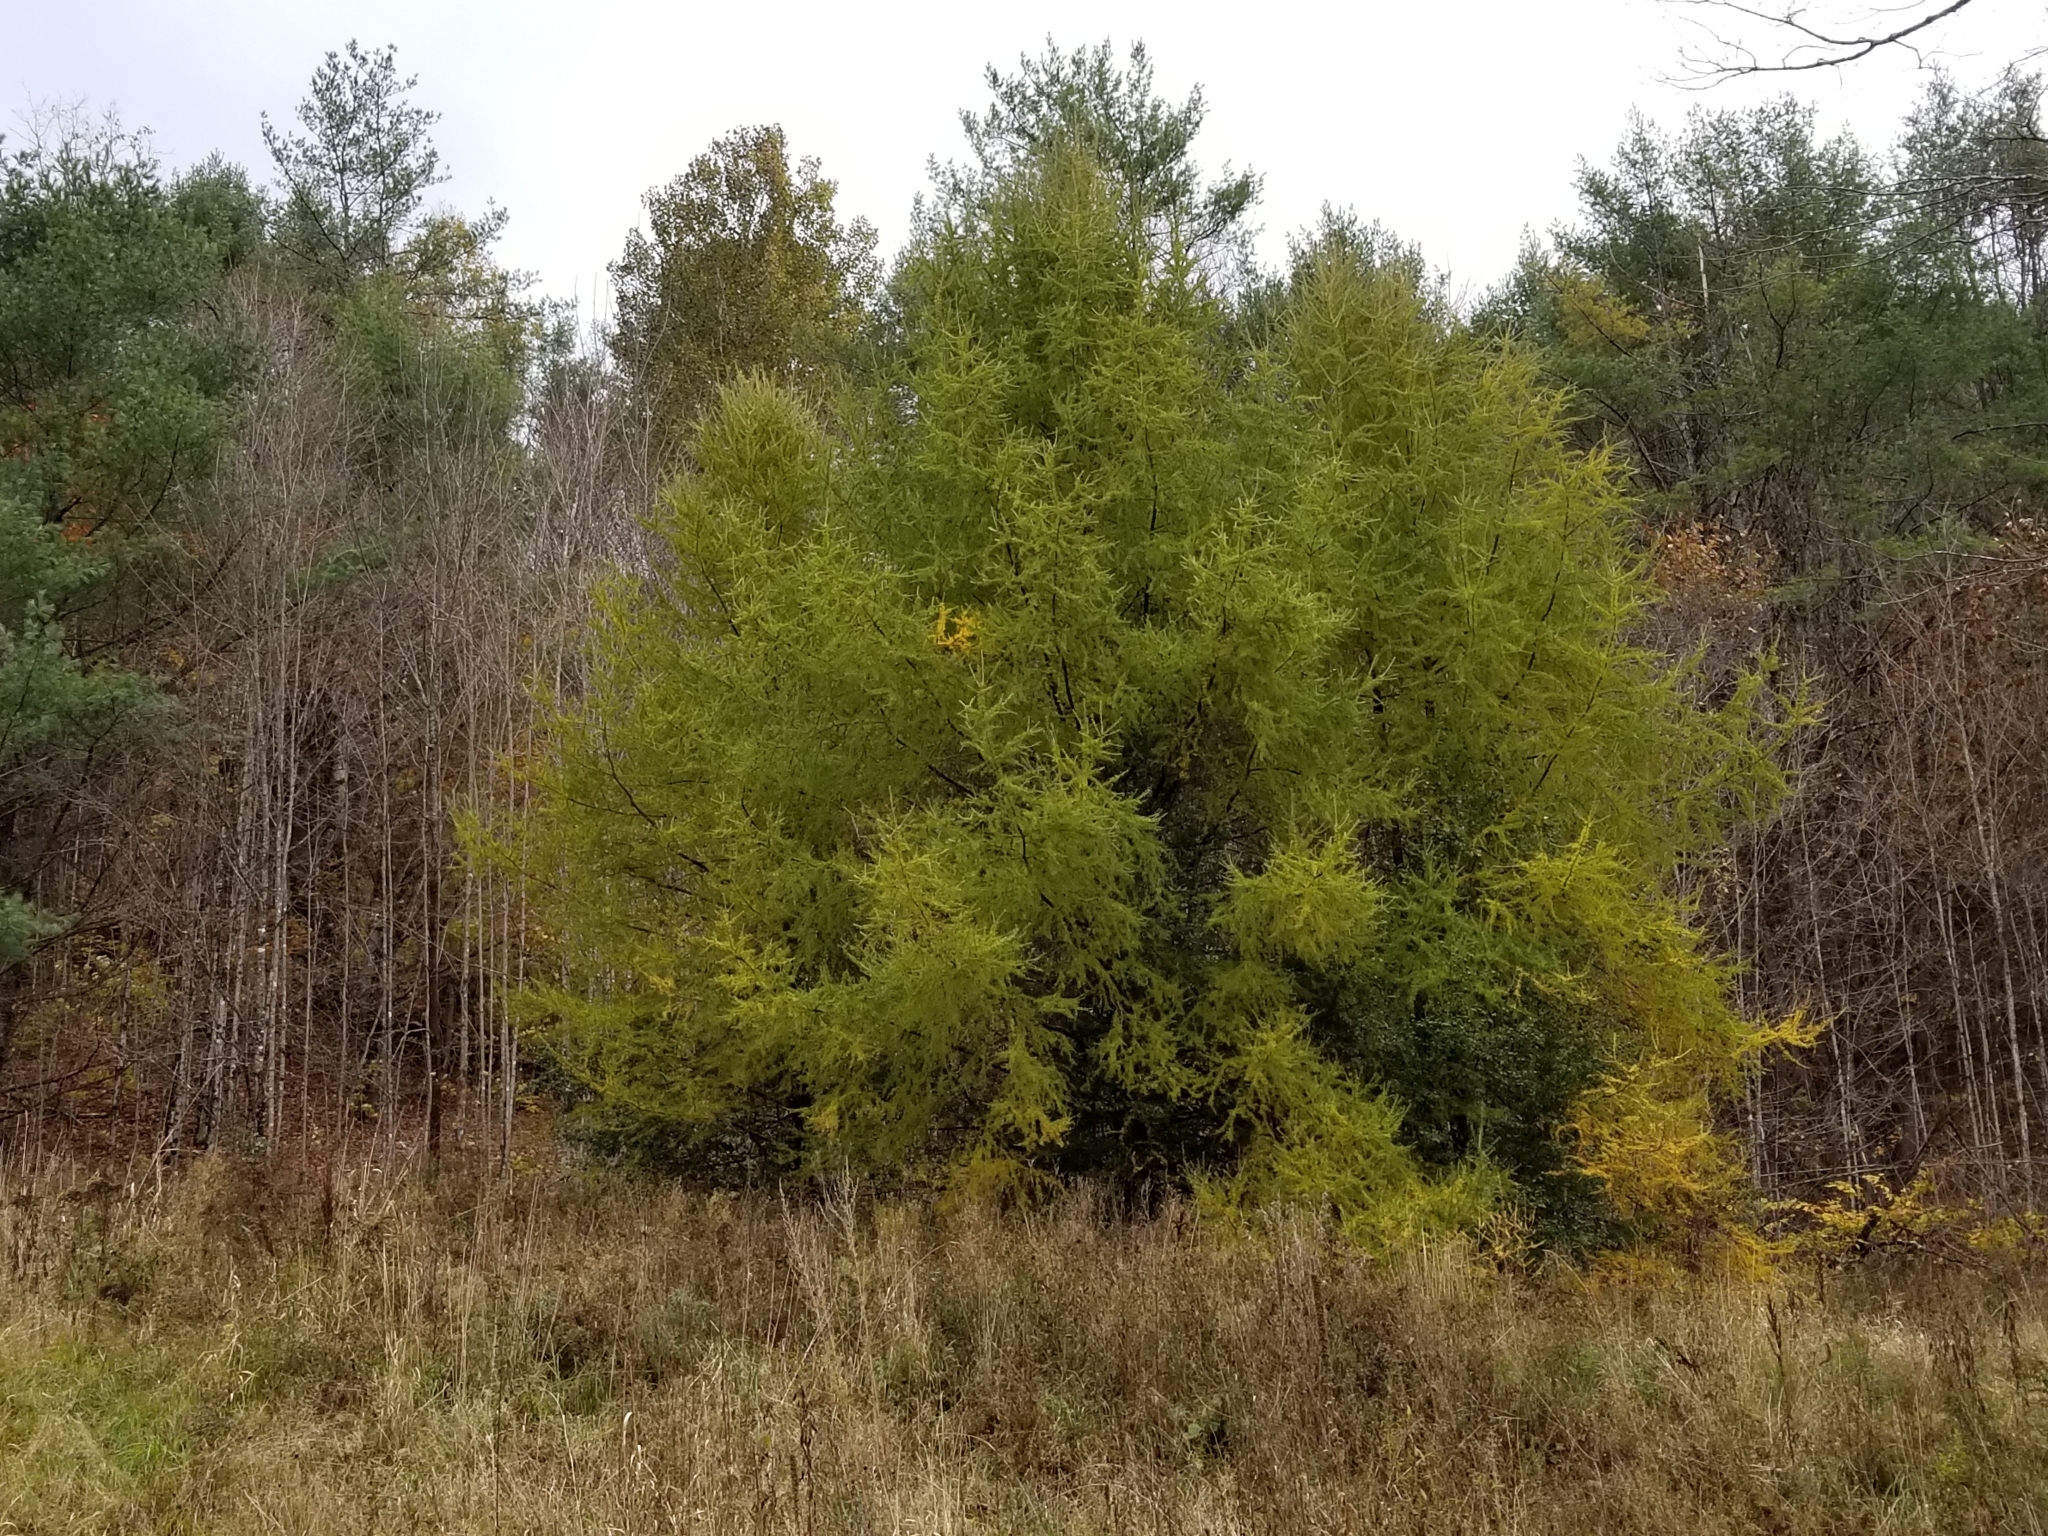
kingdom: Plantae
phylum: Tracheophyta
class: Pinopsida
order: Pinales
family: Pinaceae
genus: Larix
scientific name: Larix laricina
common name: American larch
